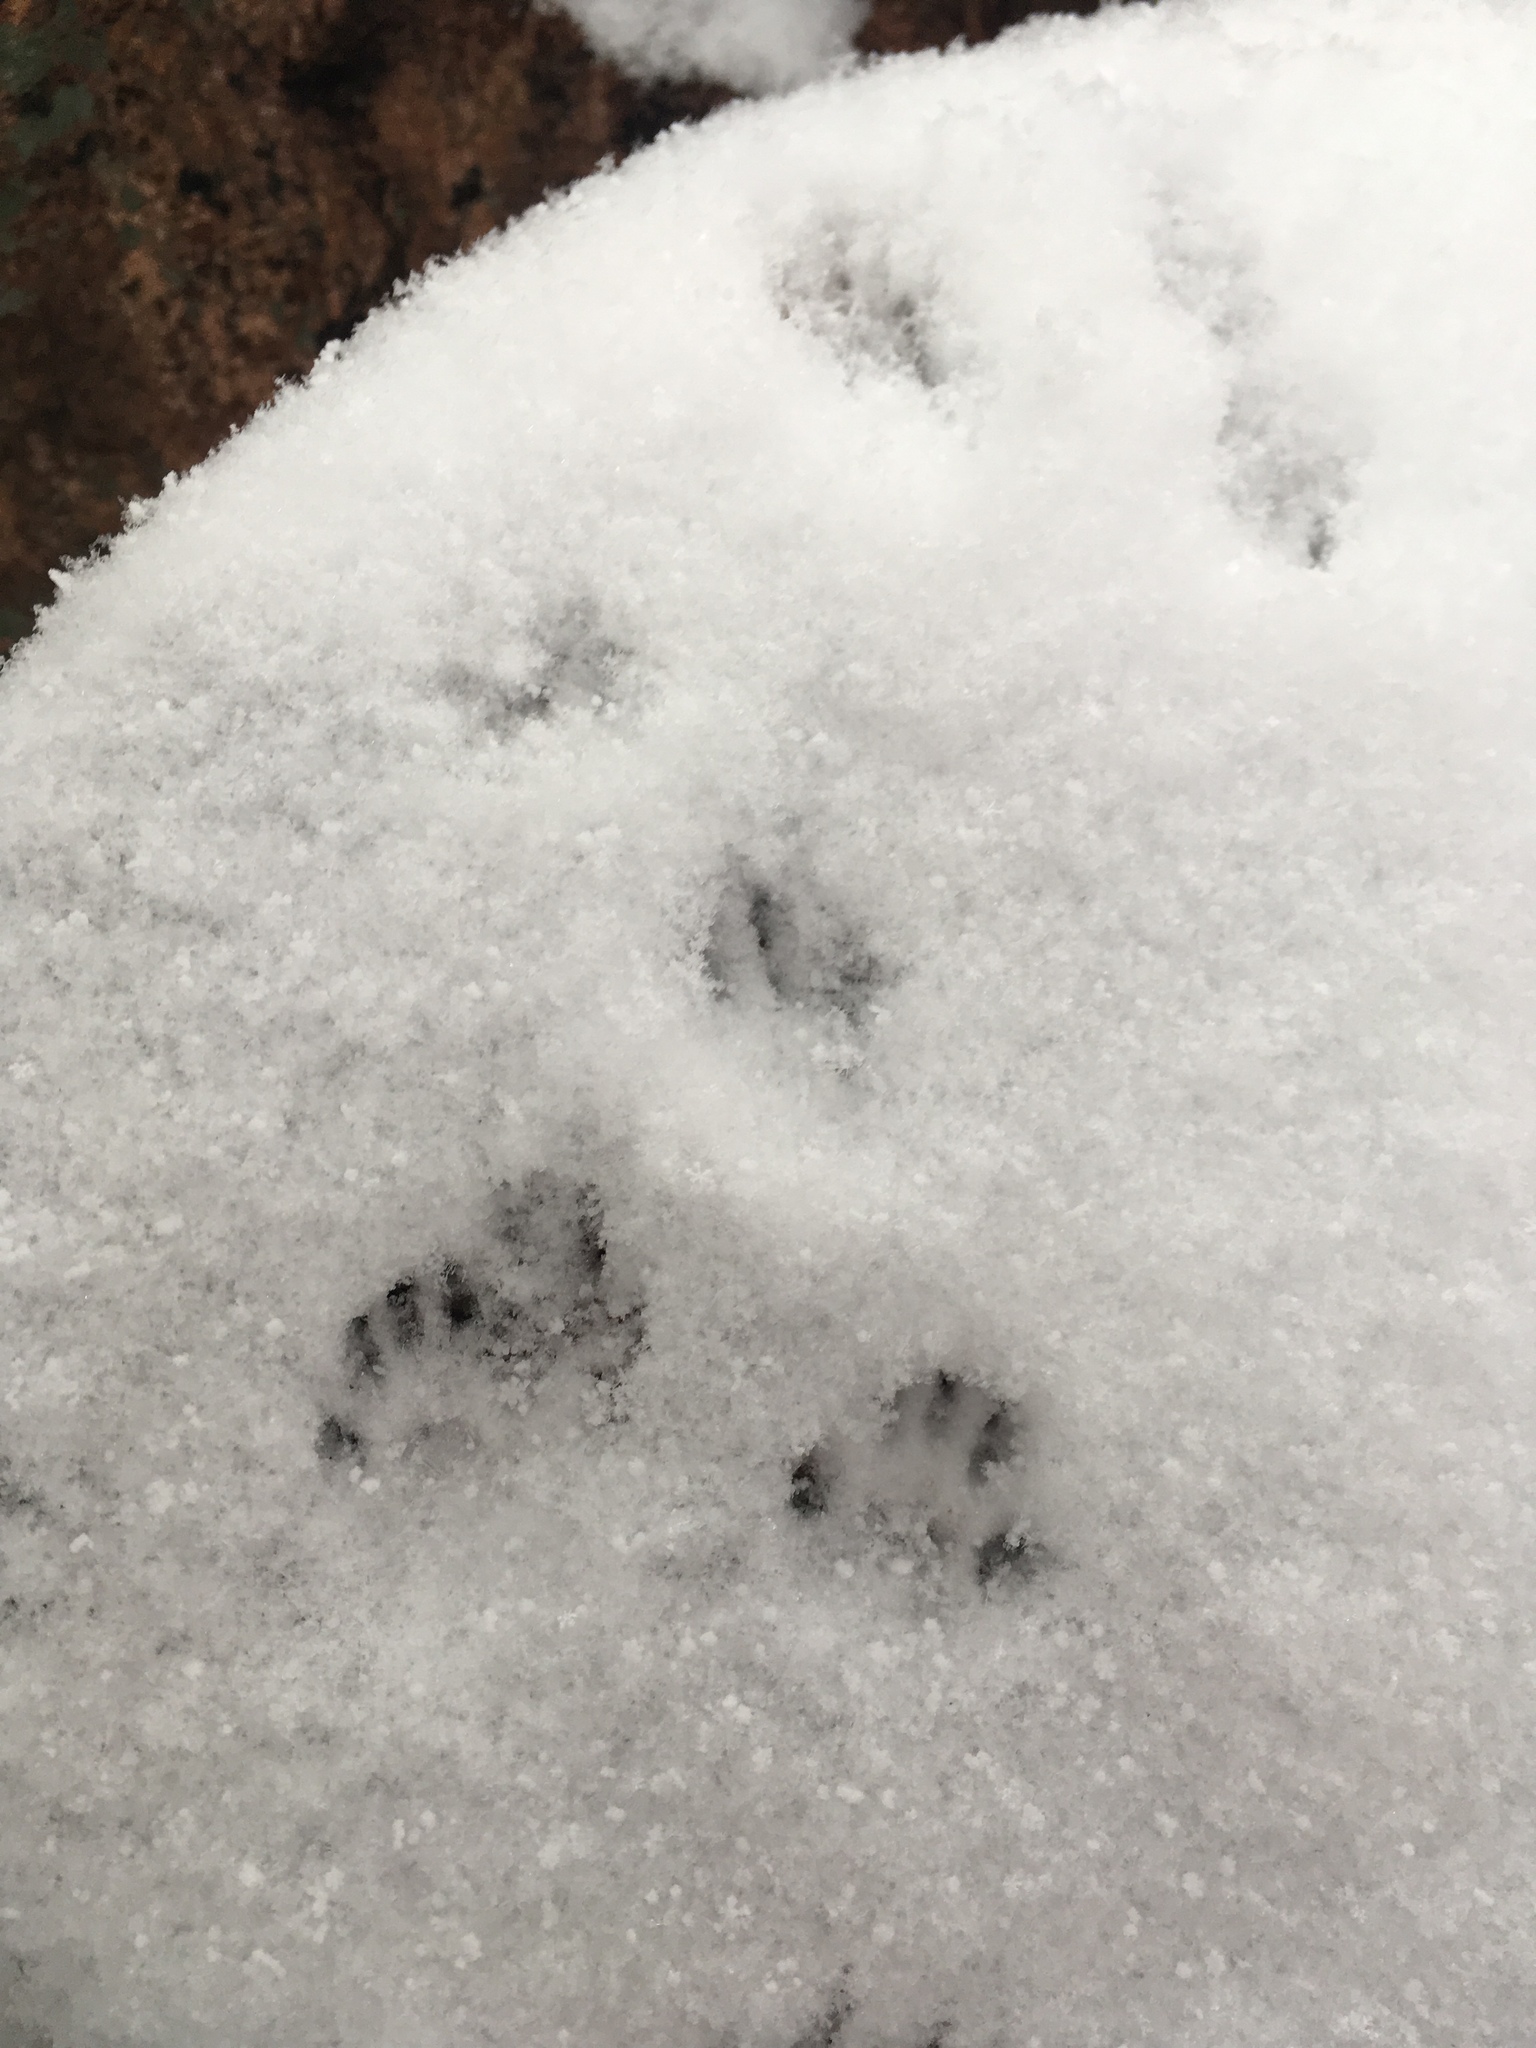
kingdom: Animalia
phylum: Chordata
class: Mammalia
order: Rodentia
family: Sciuridae
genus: Sciurus
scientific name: Sciurus niger
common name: Fox squirrel
